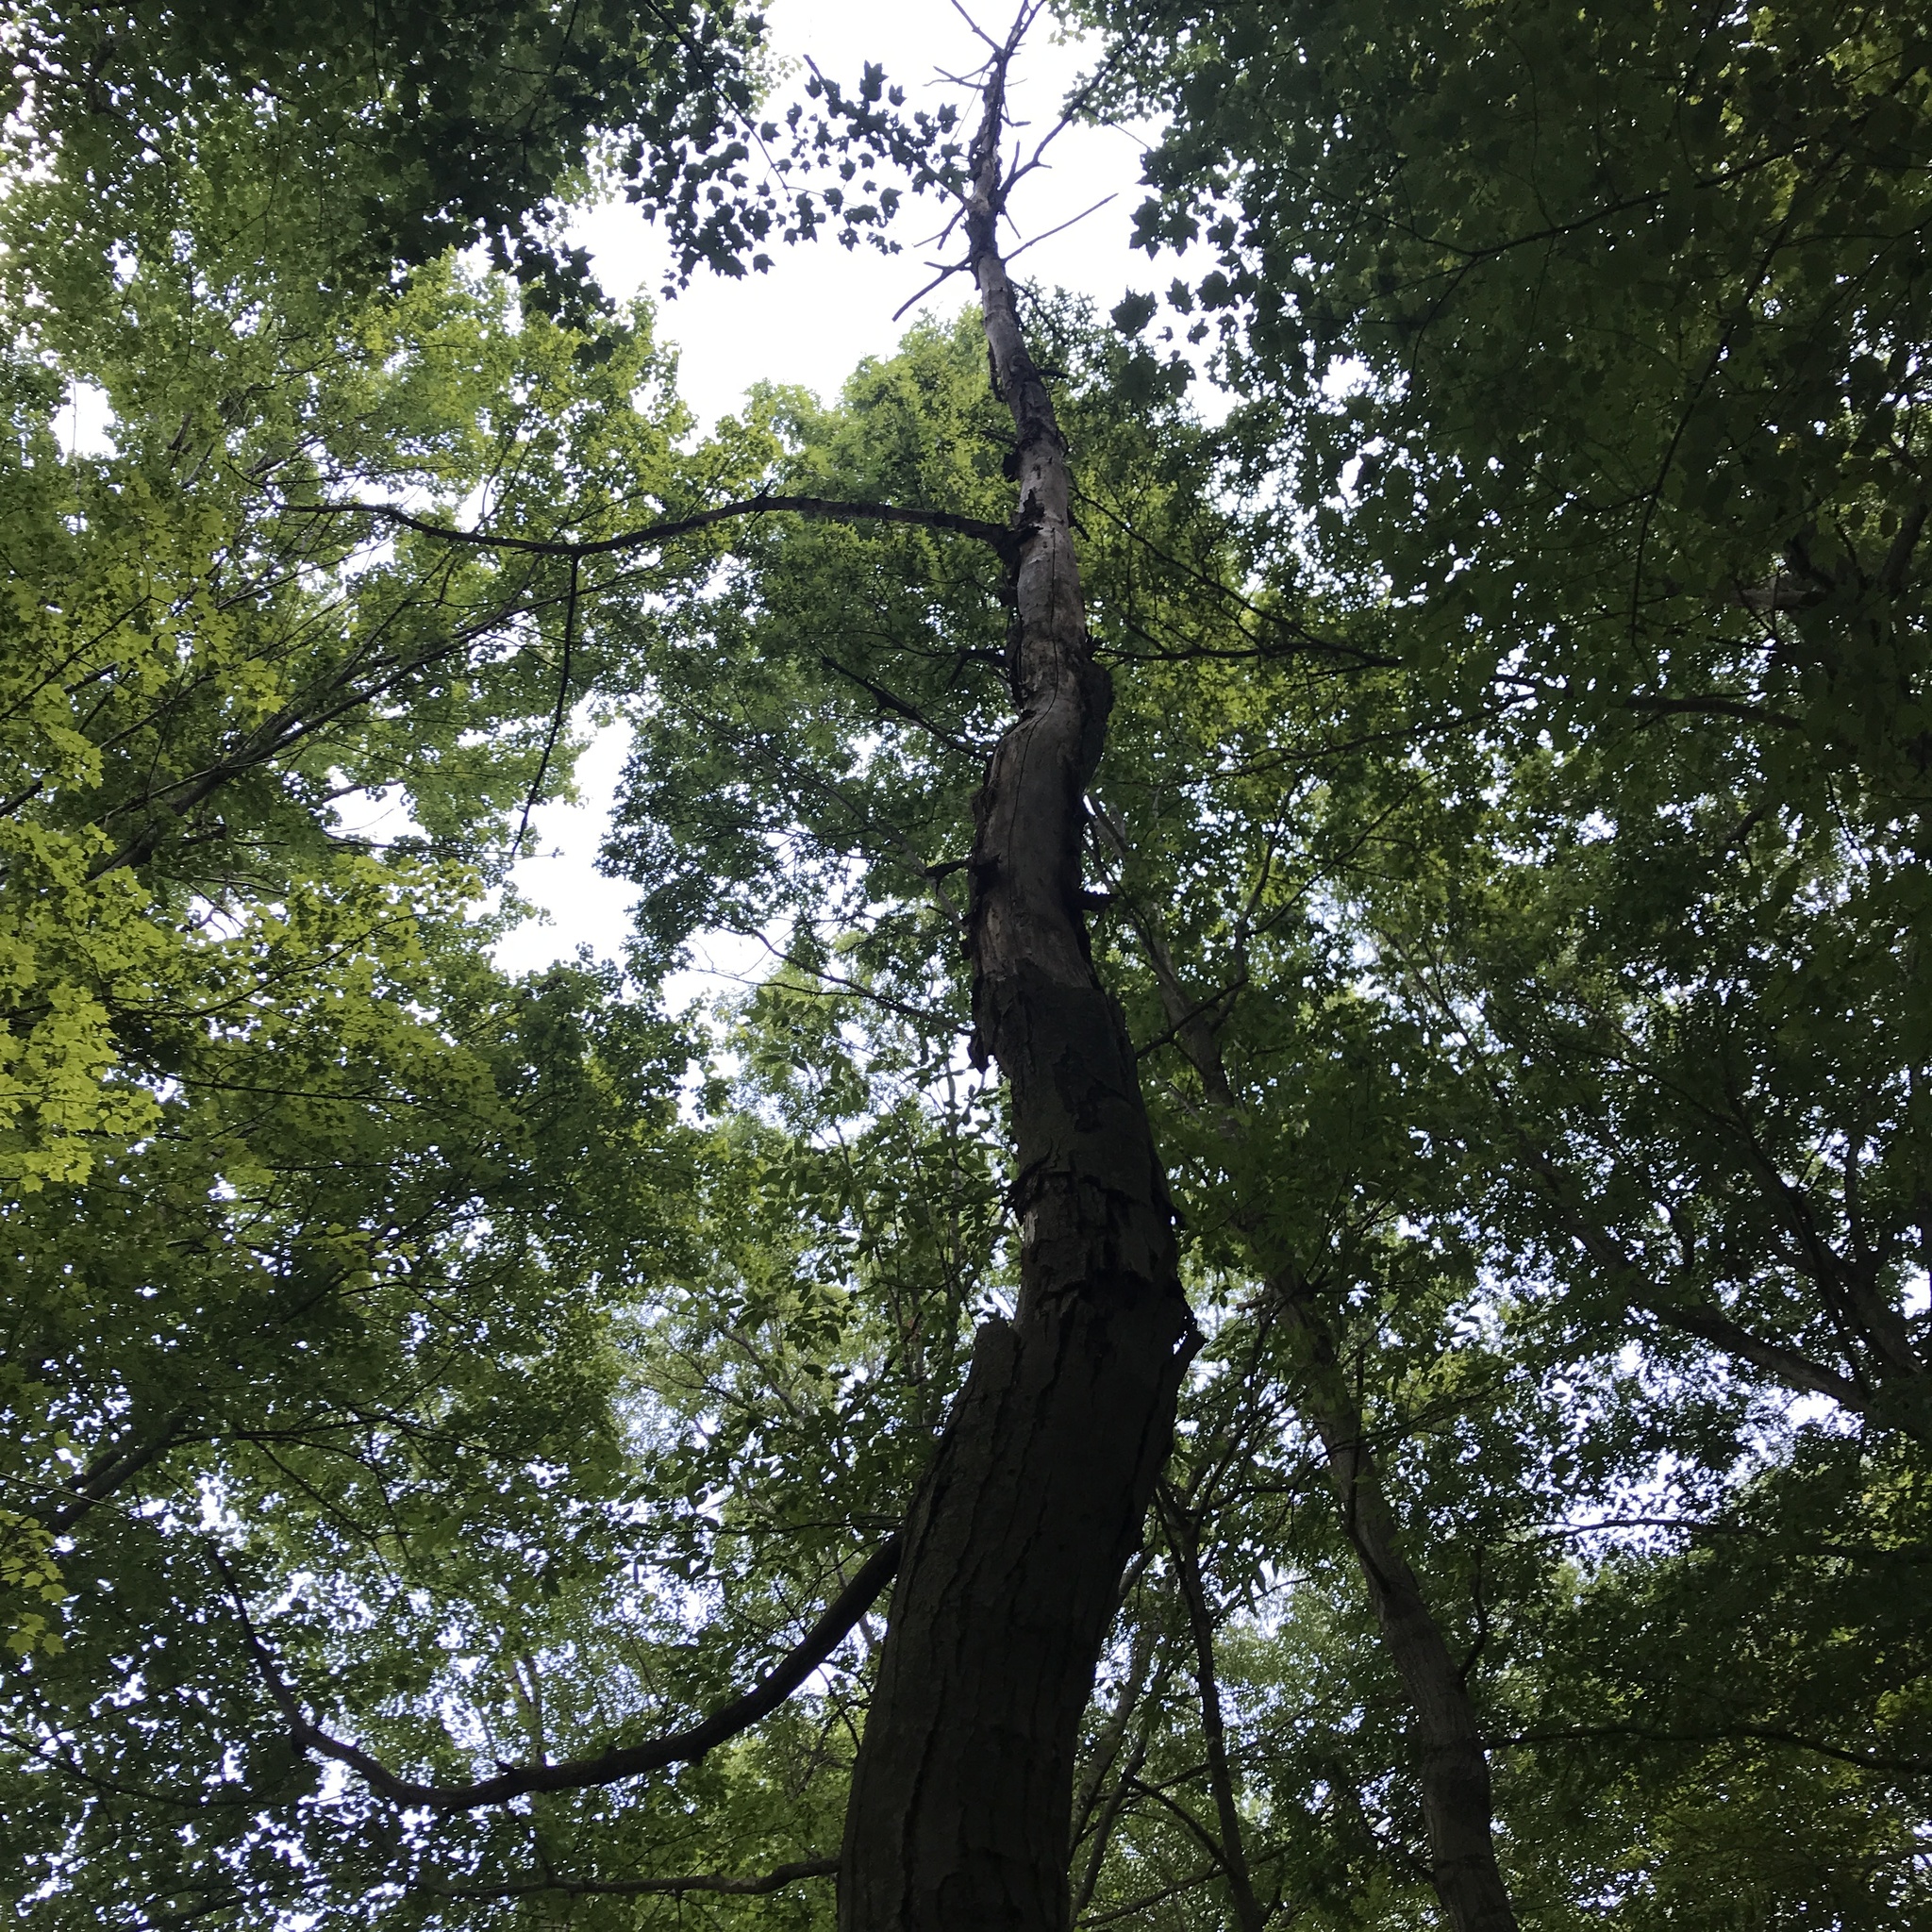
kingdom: Plantae
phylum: Tracheophyta
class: Magnoliopsida
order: Fagales
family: Fagaceae
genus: Castanea
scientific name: Castanea dentata
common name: American chestnut
